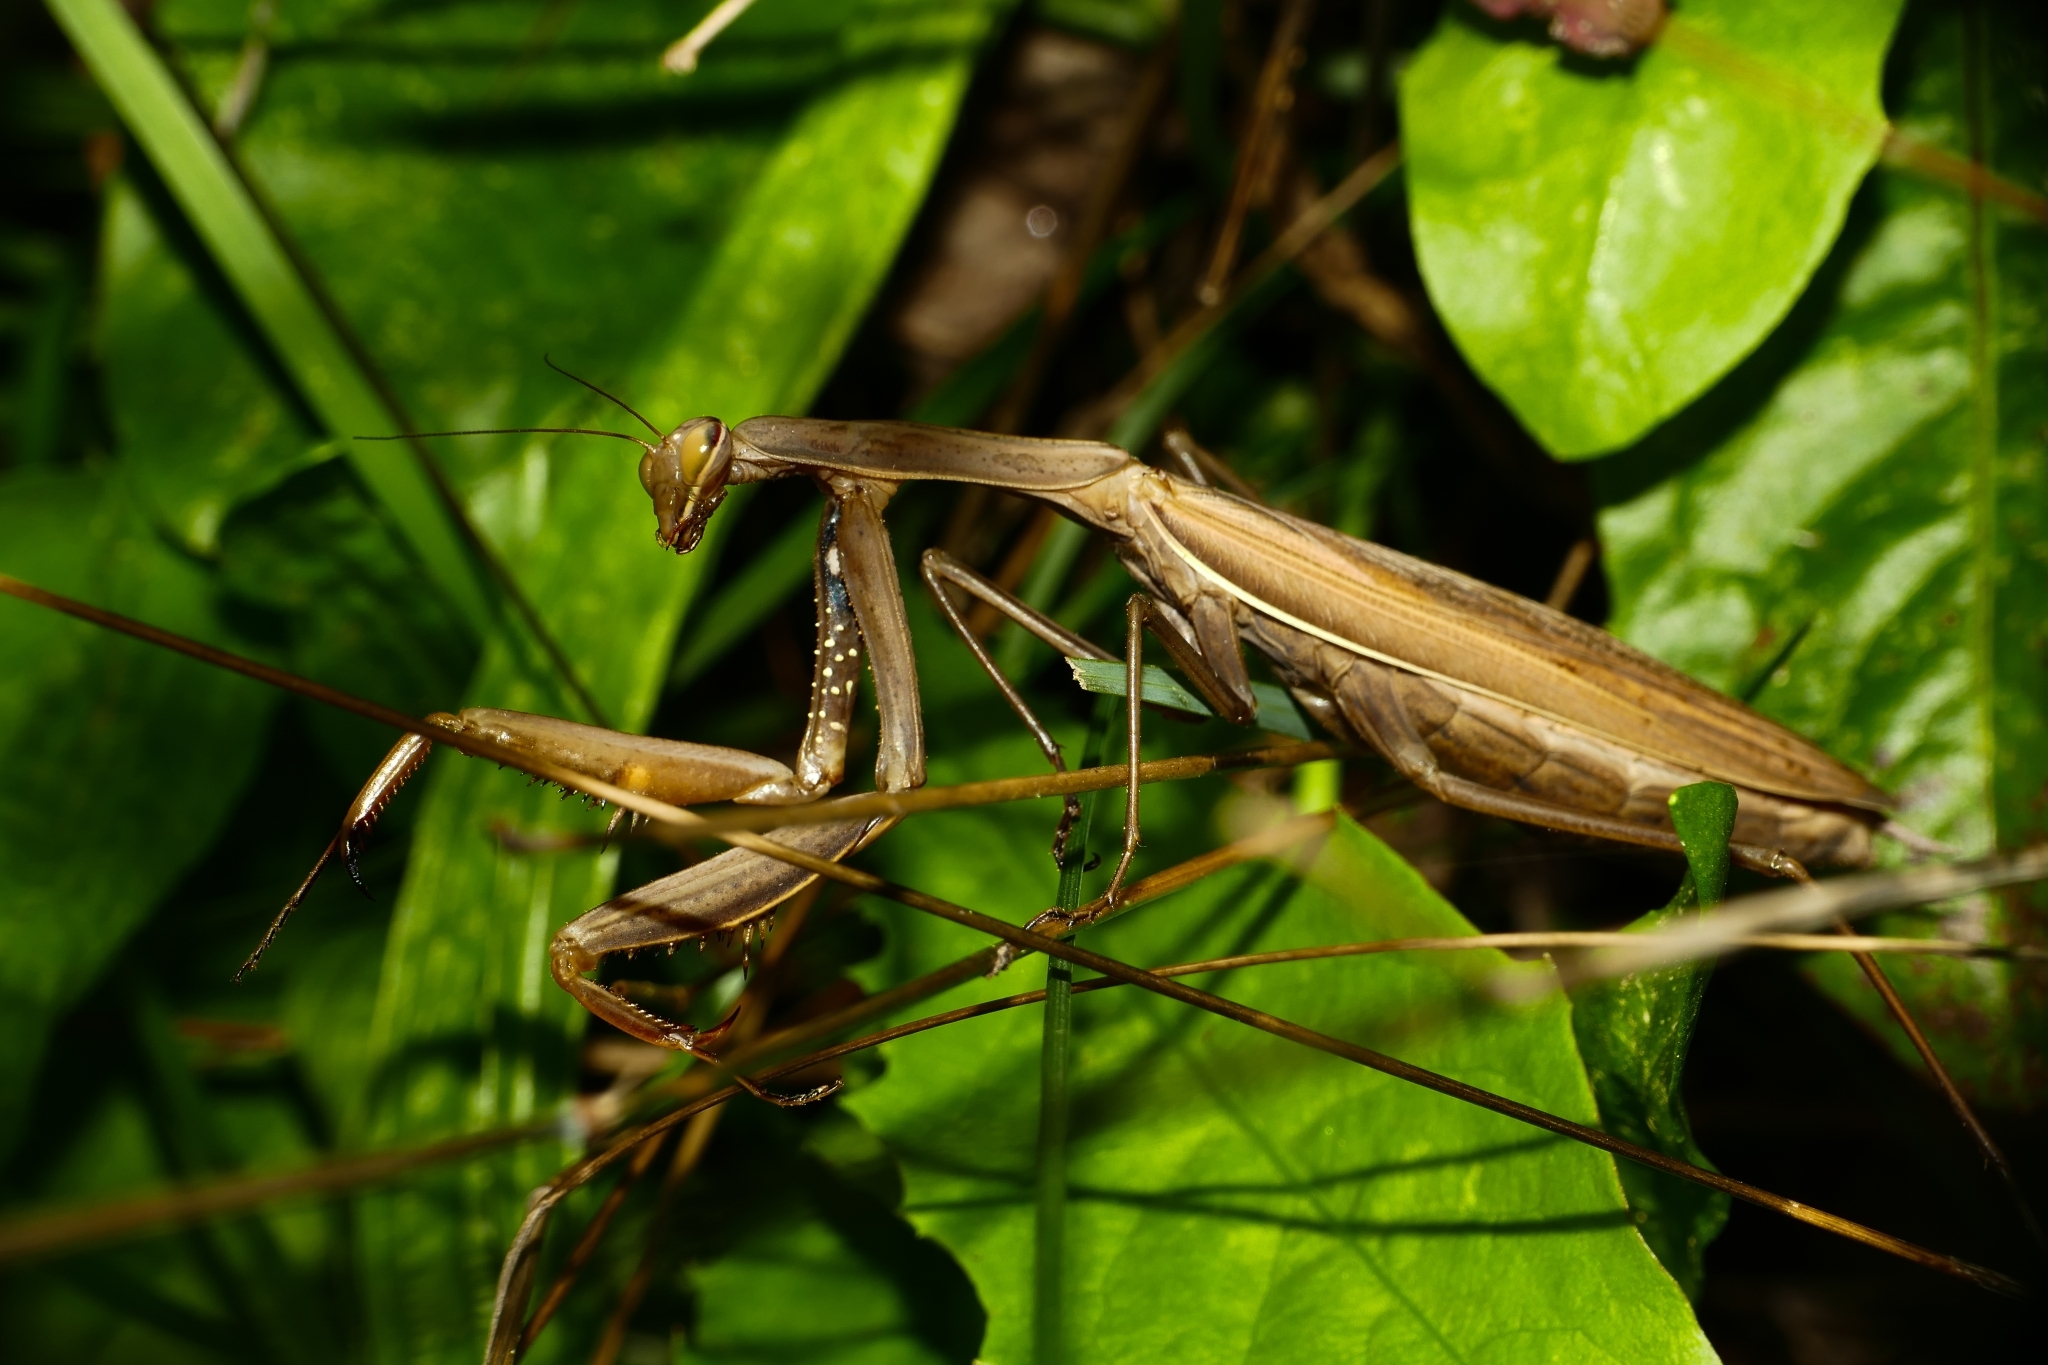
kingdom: Animalia
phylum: Arthropoda
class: Insecta
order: Mantodea
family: Mantidae
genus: Mantis
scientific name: Mantis religiosa
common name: Praying mantis
